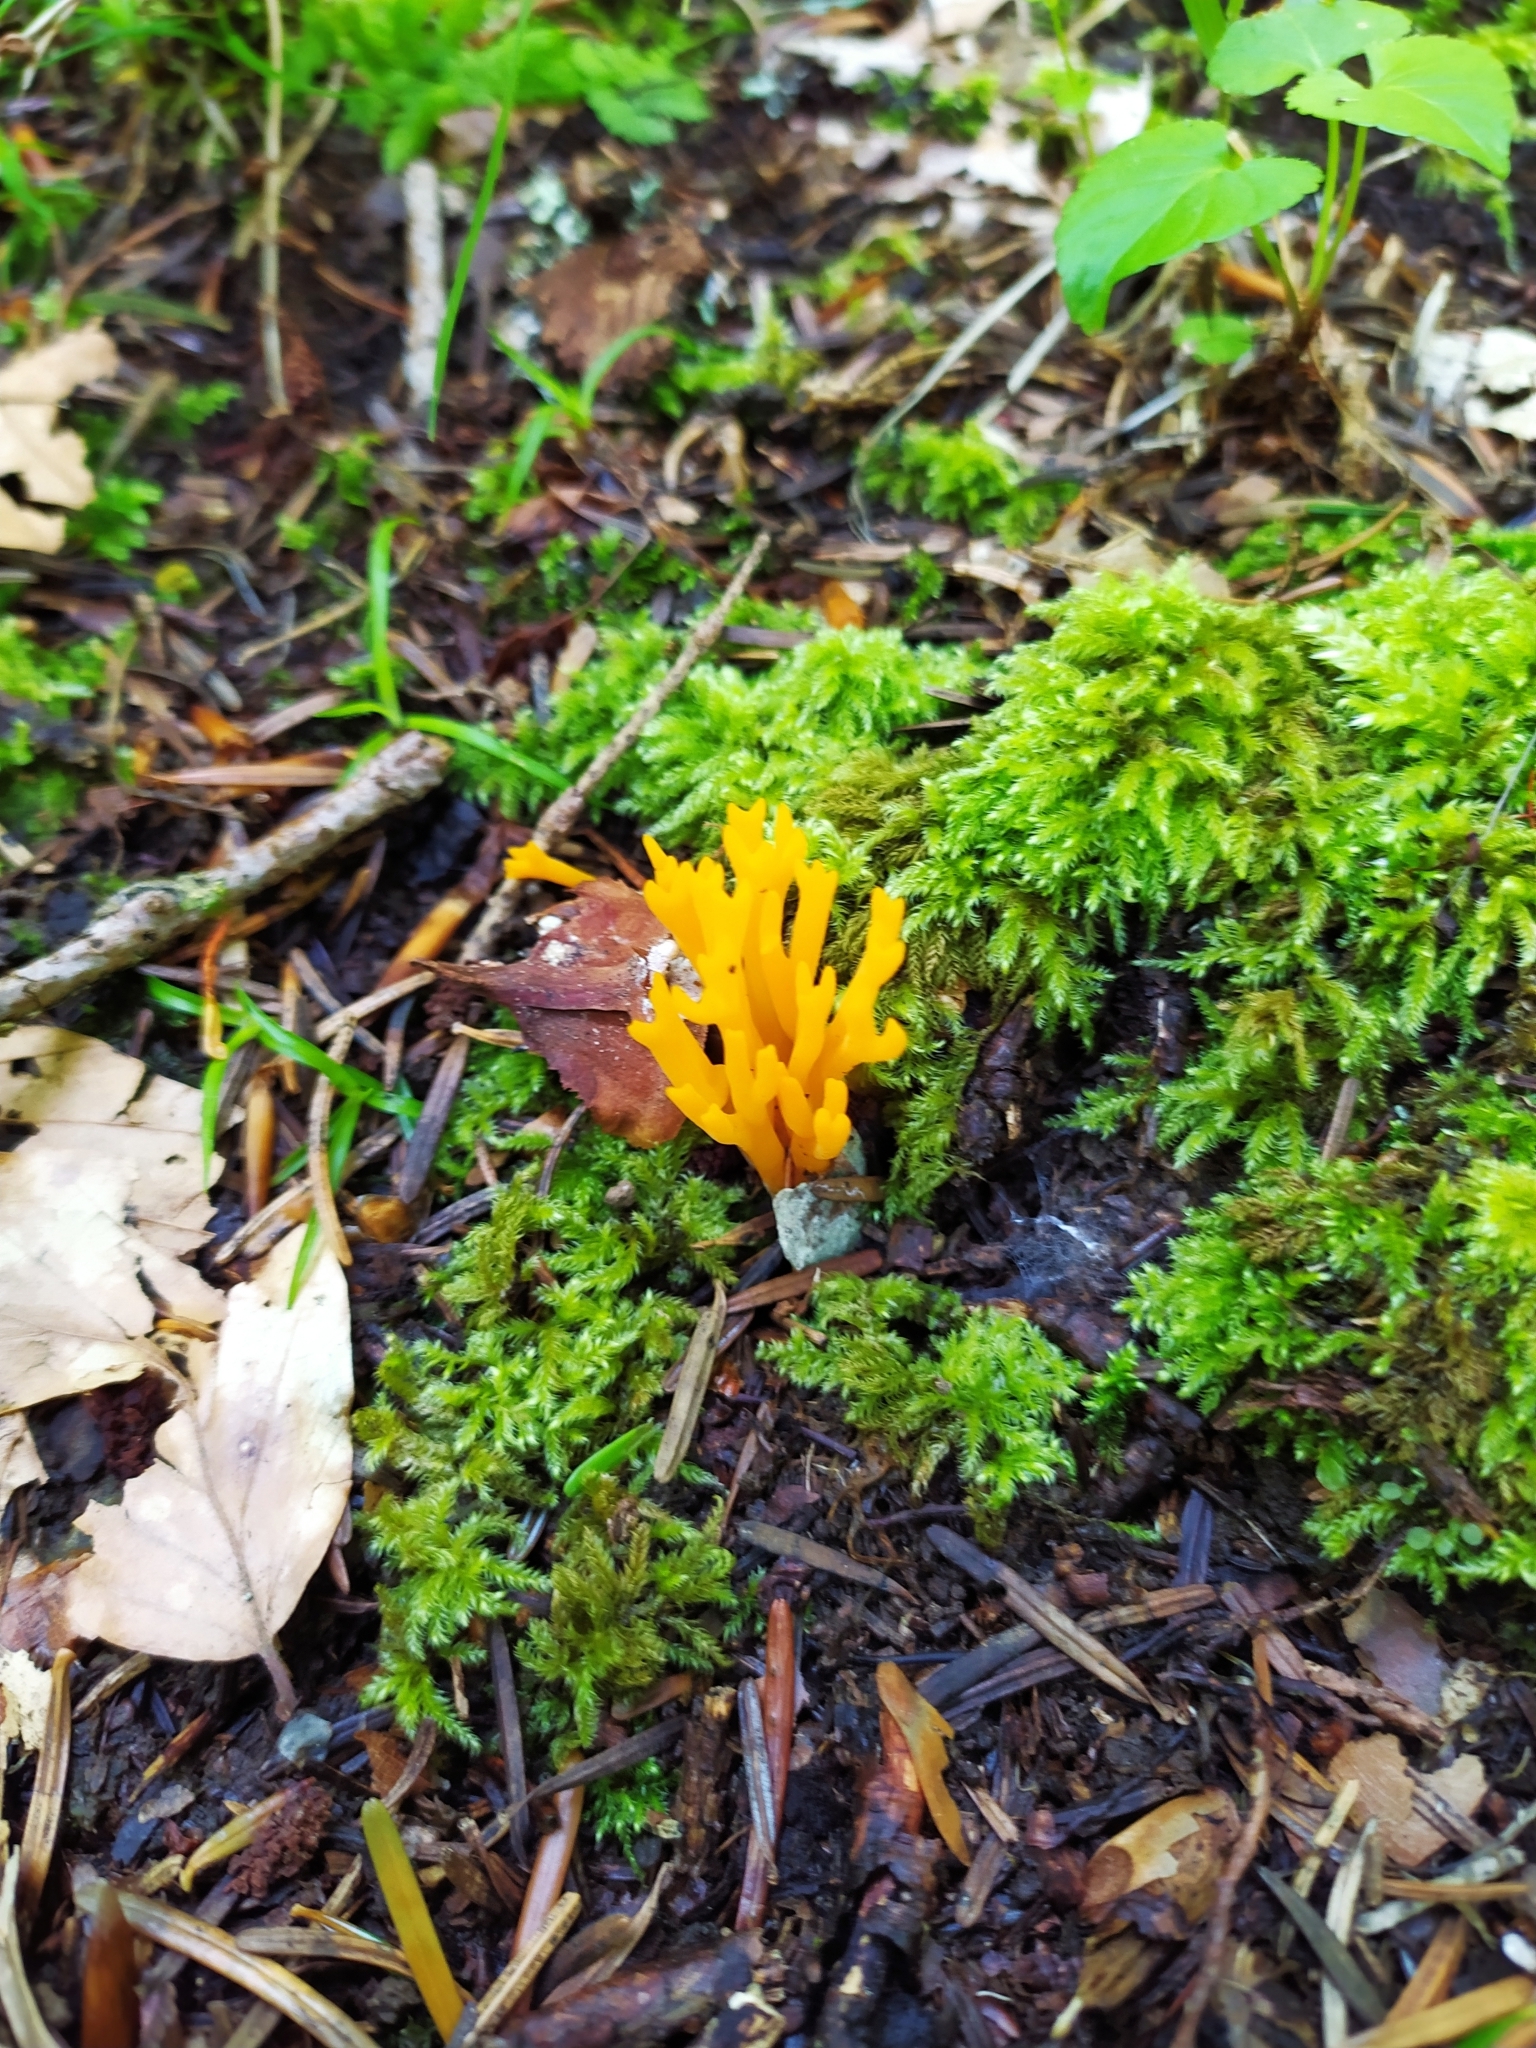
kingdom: Fungi
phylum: Basidiomycota
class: Dacrymycetes
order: Dacrymycetales
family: Dacrymycetaceae
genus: Calocera
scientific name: Calocera viscosa
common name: Yellow stagshorn
